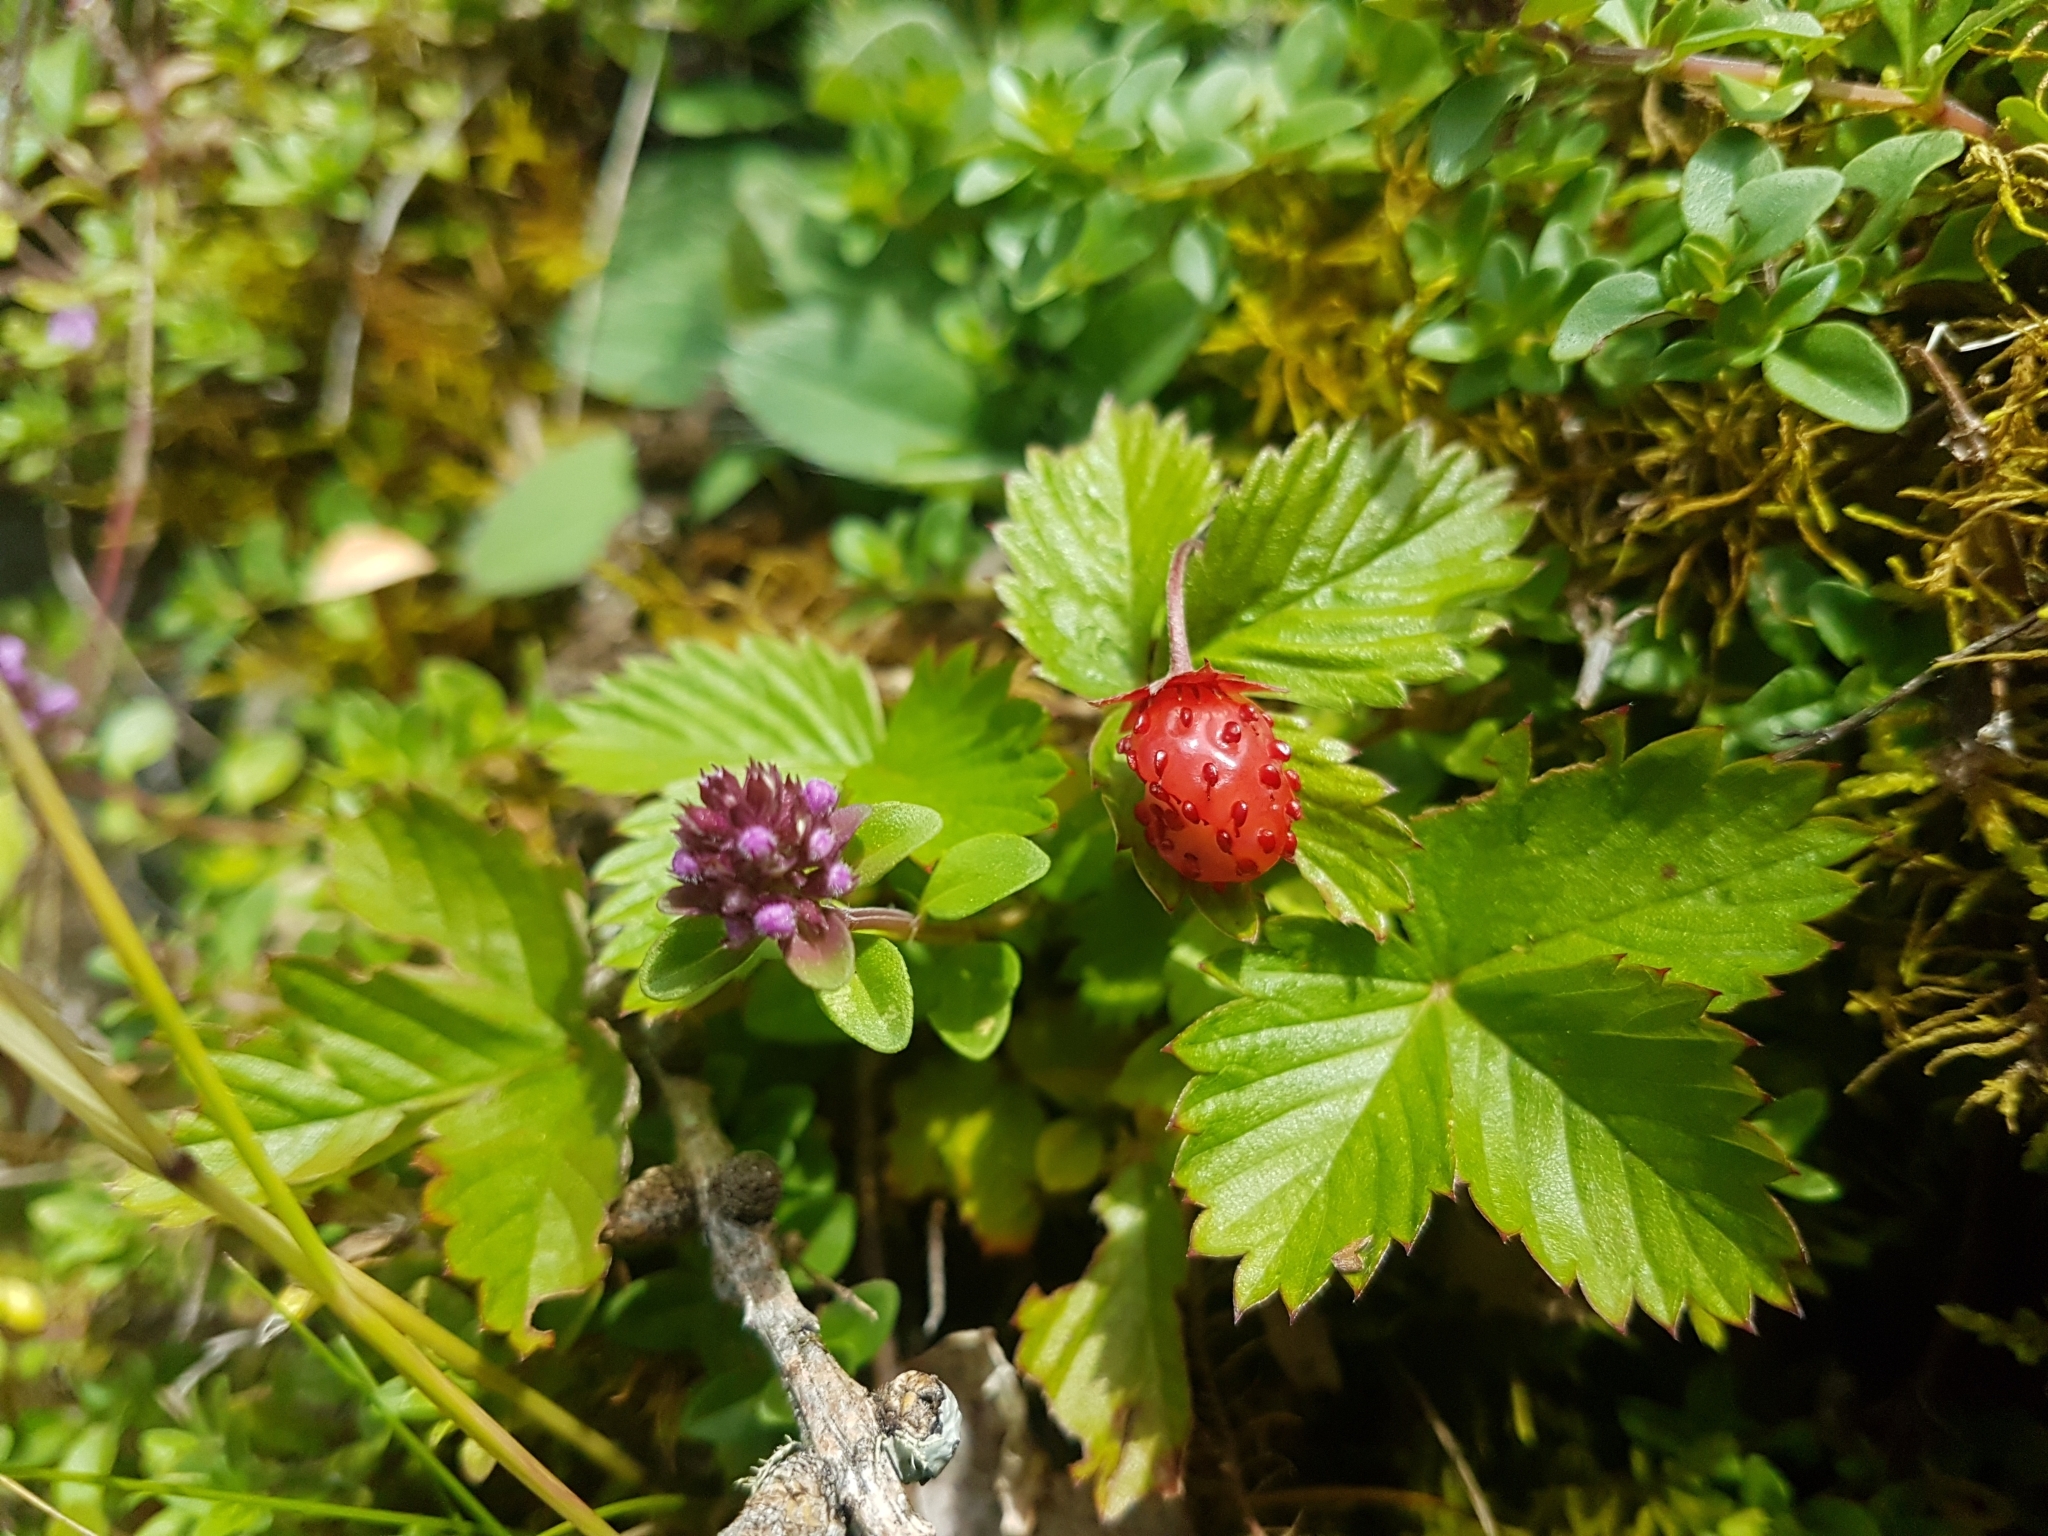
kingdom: Plantae
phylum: Tracheophyta
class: Magnoliopsida
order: Rosales
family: Rosaceae
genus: Fragaria
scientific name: Fragaria vesca
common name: Wild strawberry
